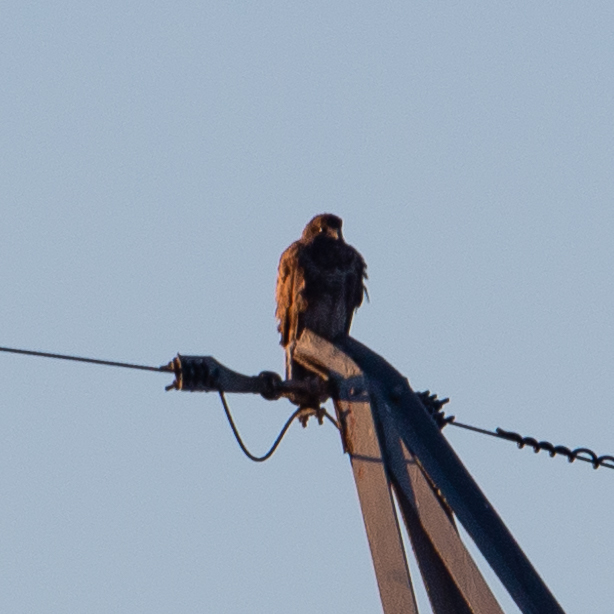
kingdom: Animalia
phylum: Chordata
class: Aves
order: Accipitriformes
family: Accipitridae
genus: Buteo
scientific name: Buteo buteo
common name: Common buzzard
